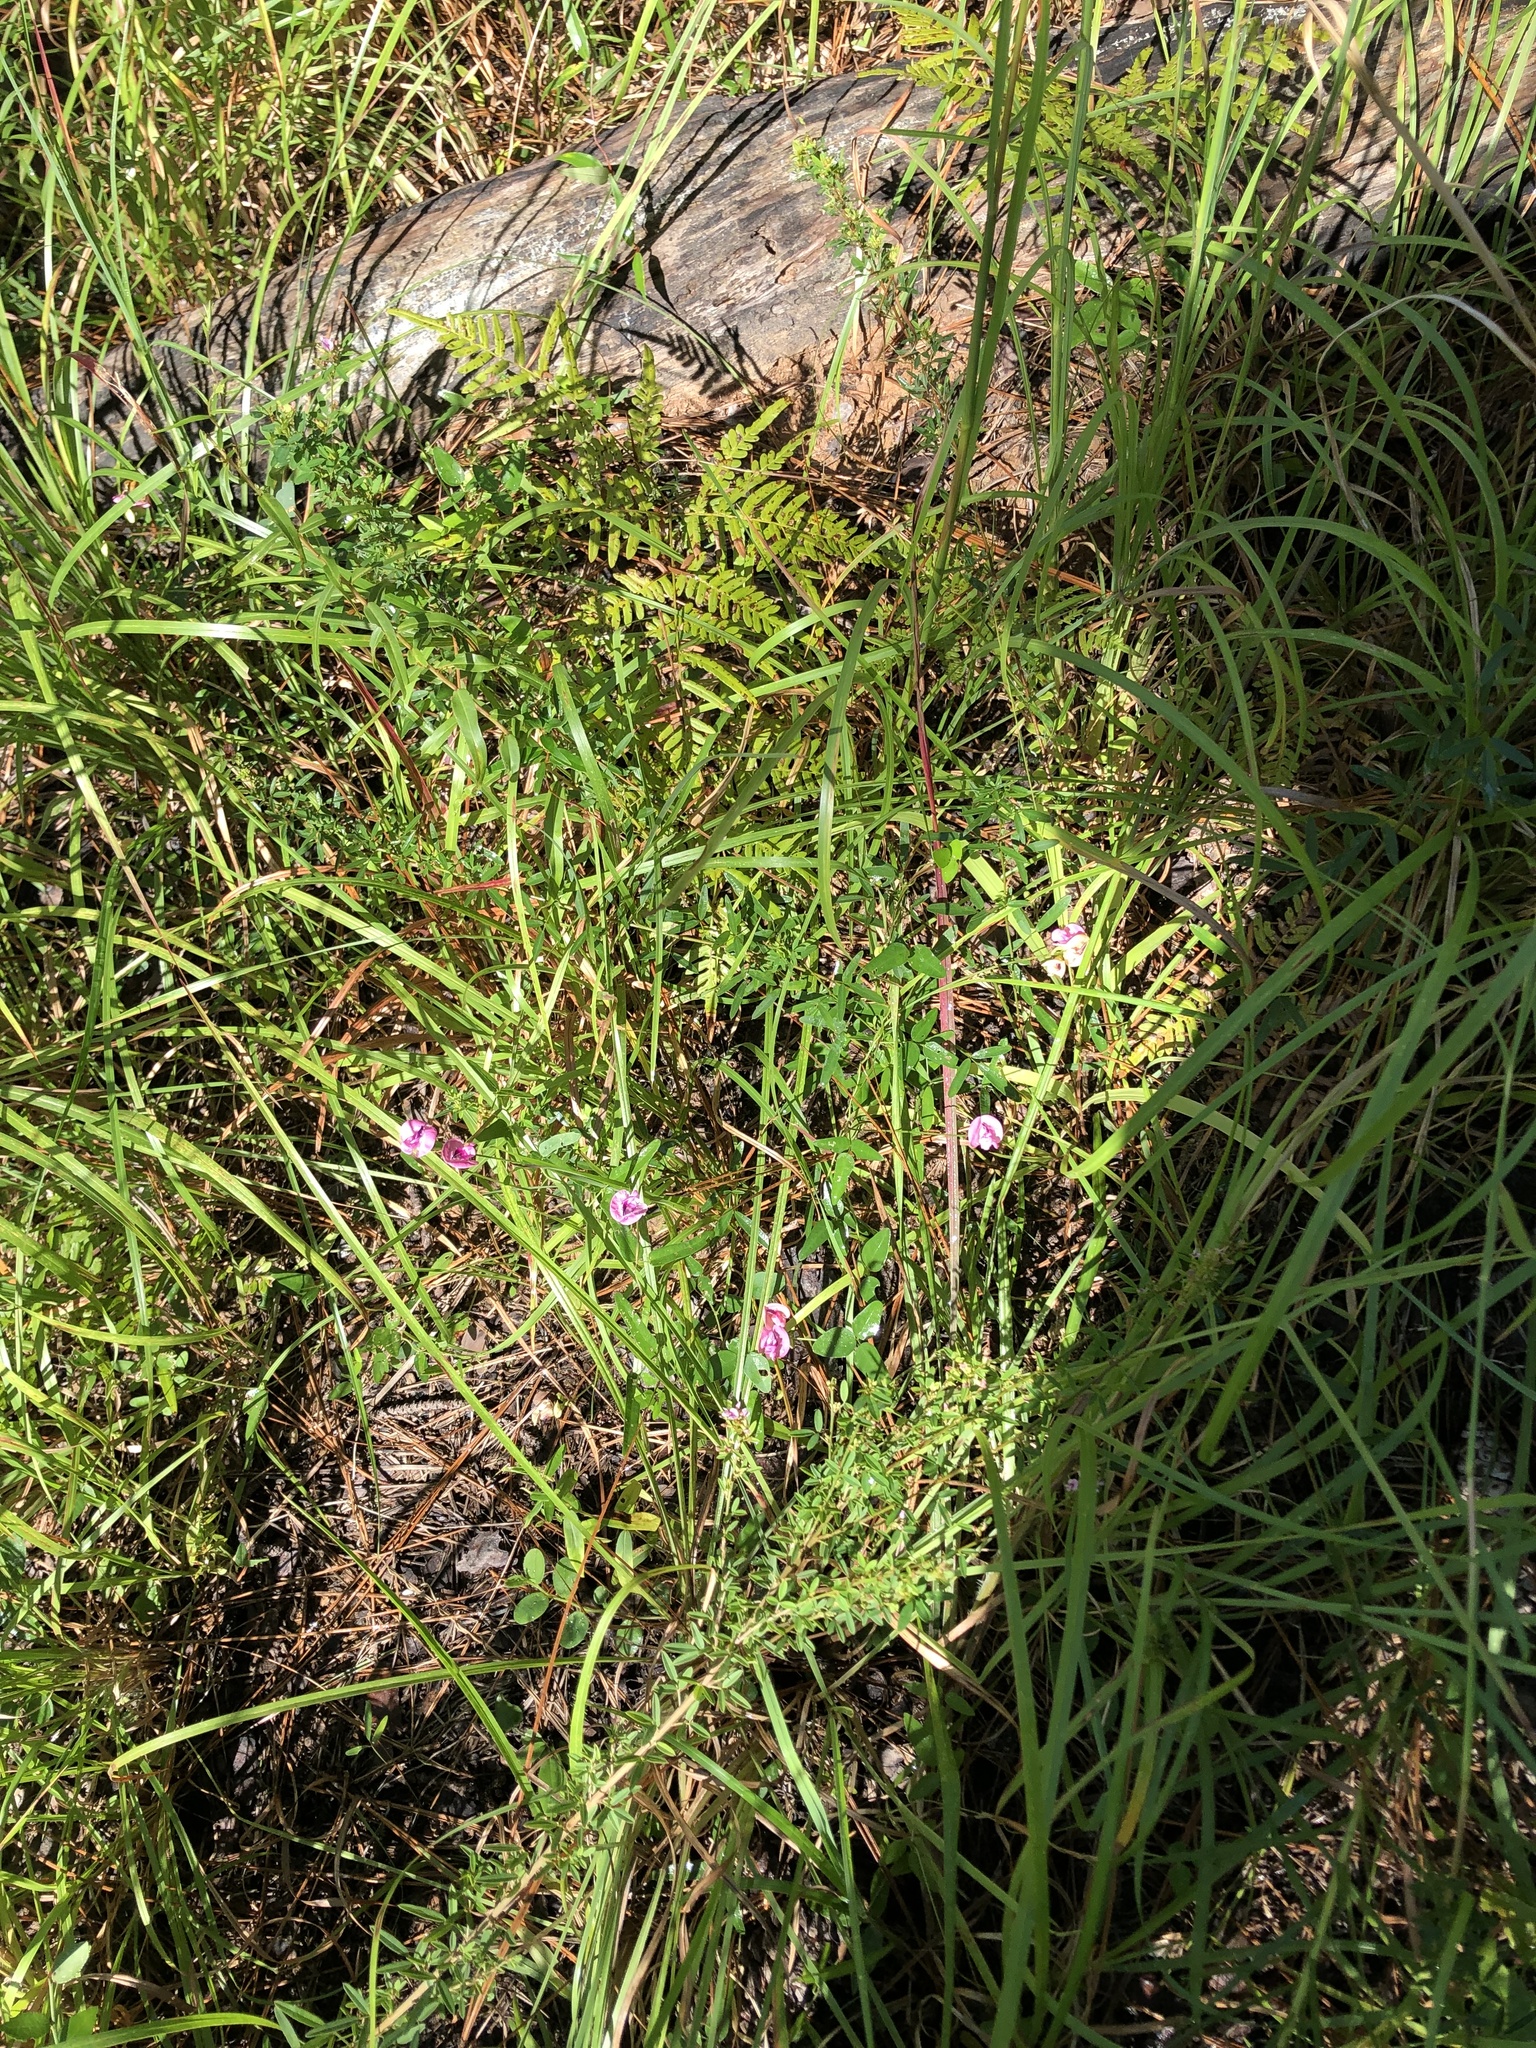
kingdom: Plantae
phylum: Tracheophyta
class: Magnoliopsida
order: Fabales
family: Fabaceae
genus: Strophostyles
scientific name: Strophostyles umbellata
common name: Perennial wild bean
